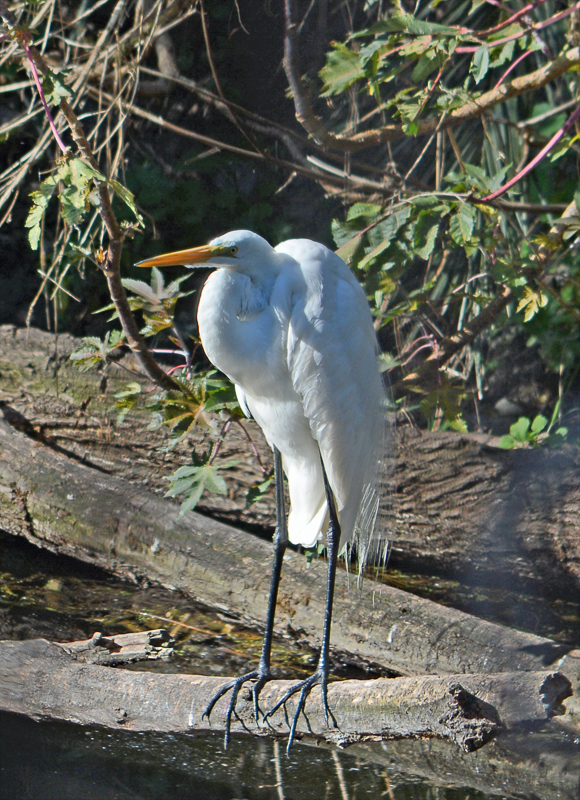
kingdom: Animalia
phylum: Chordata
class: Aves
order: Pelecaniformes
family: Ardeidae
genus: Ardea
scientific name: Ardea alba
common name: Great egret
